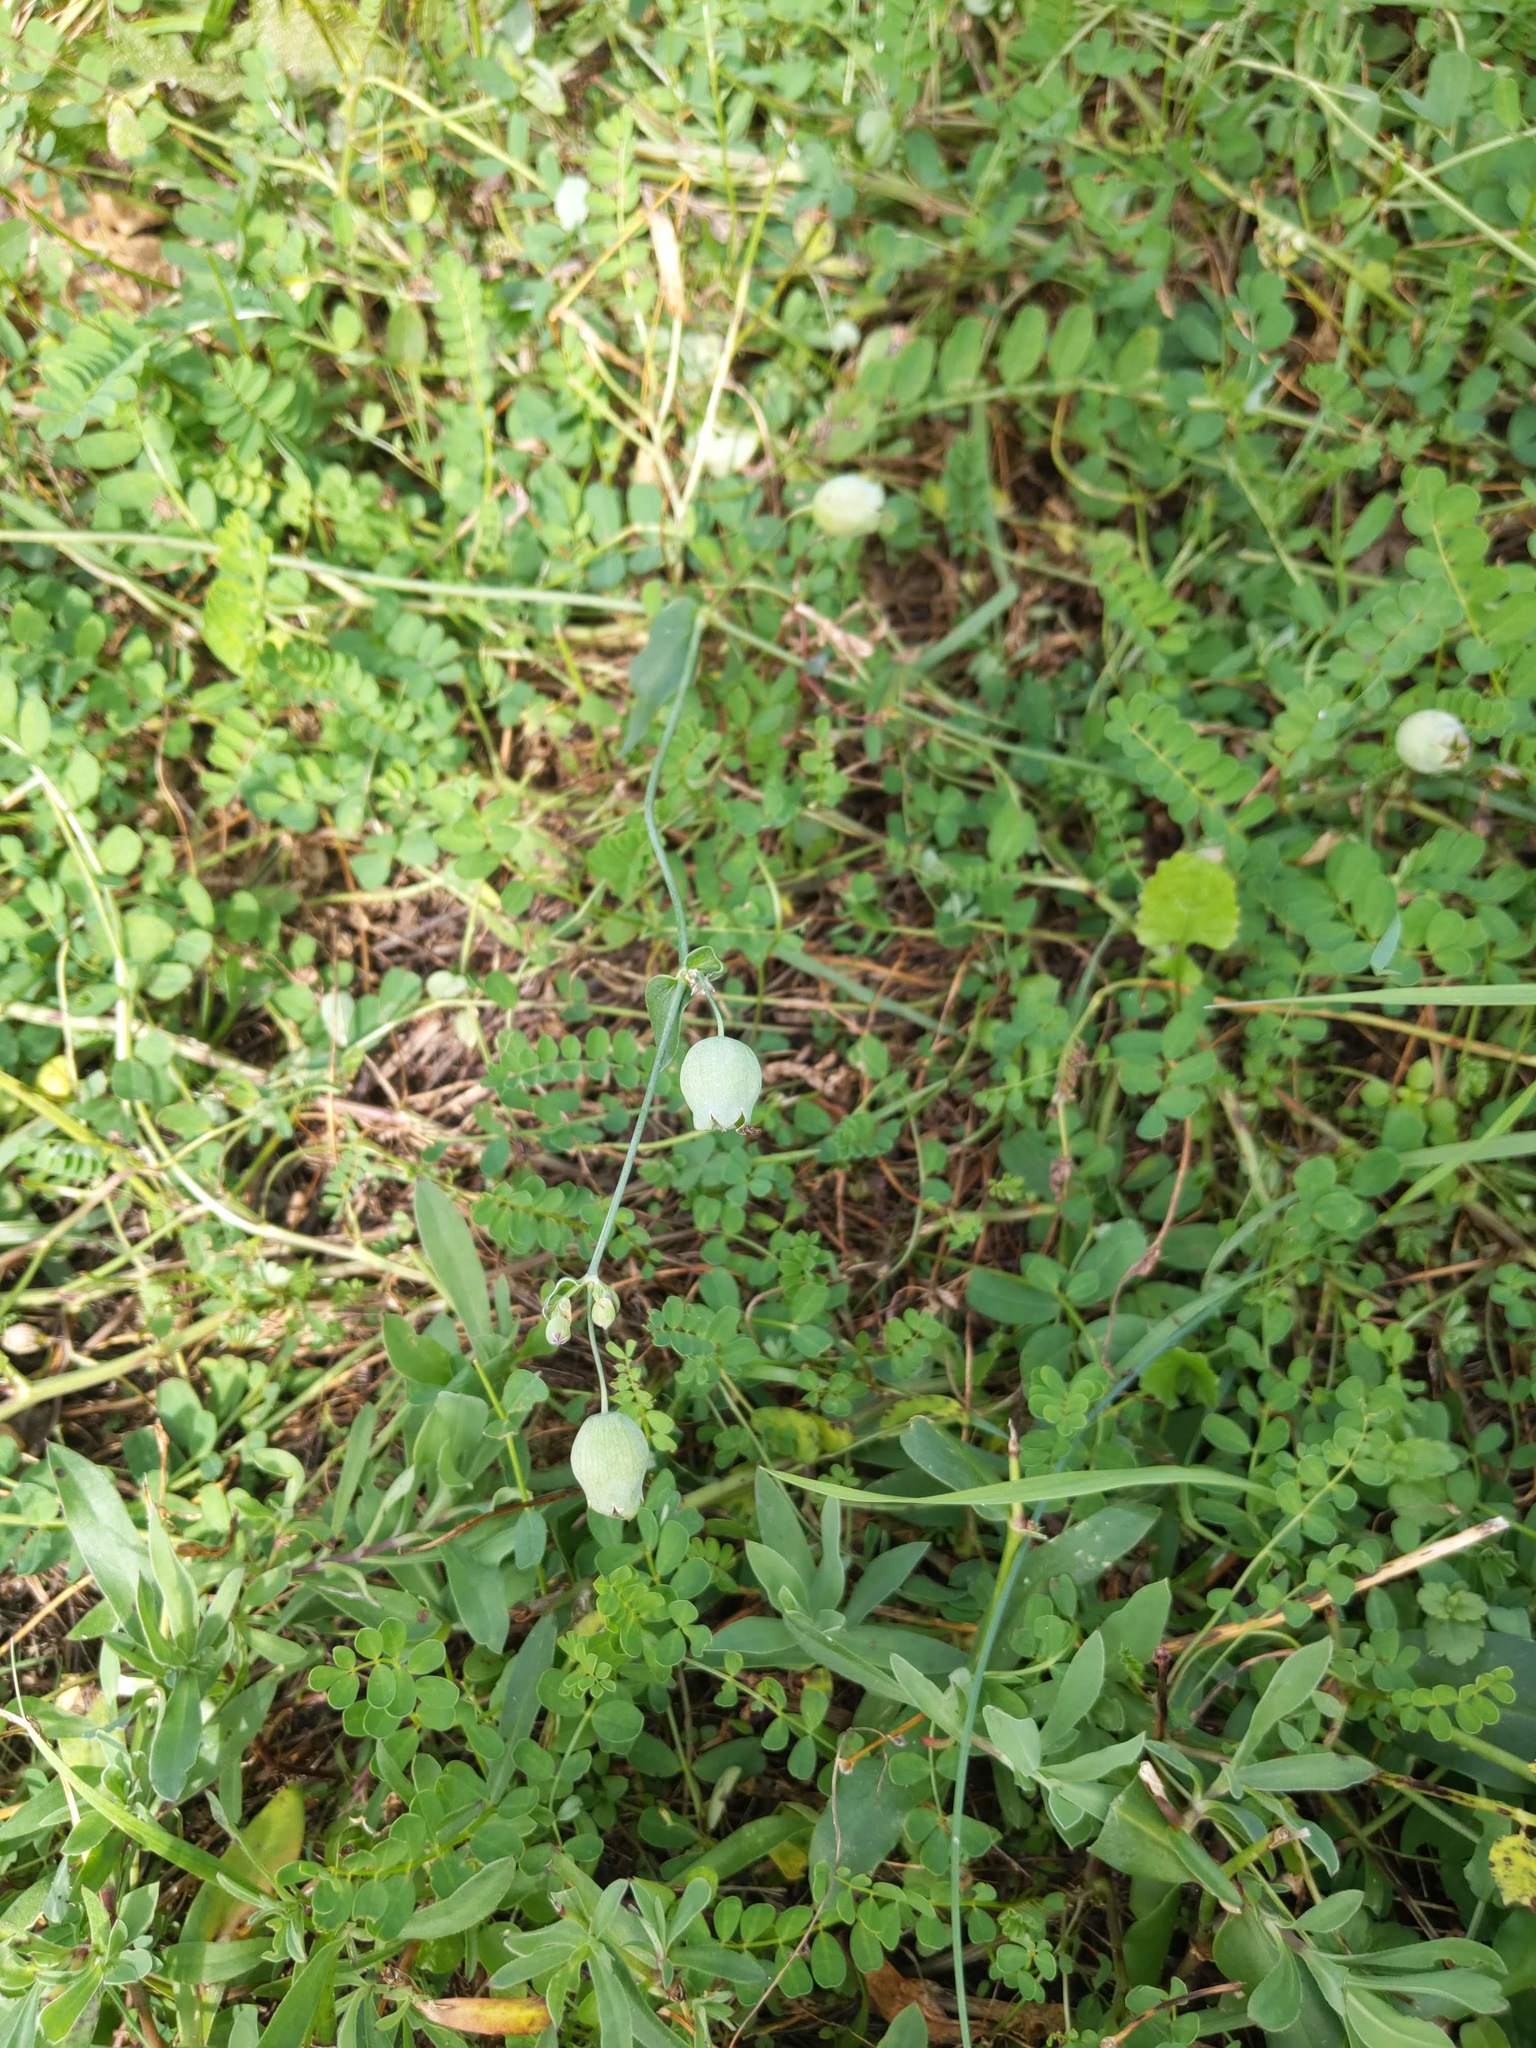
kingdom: Plantae
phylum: Tracheophyta
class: Magnoliopsida
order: Caryophyllales
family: Caryophyllaceae
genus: Silene
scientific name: Silene vulgaris
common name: Bladder campion
